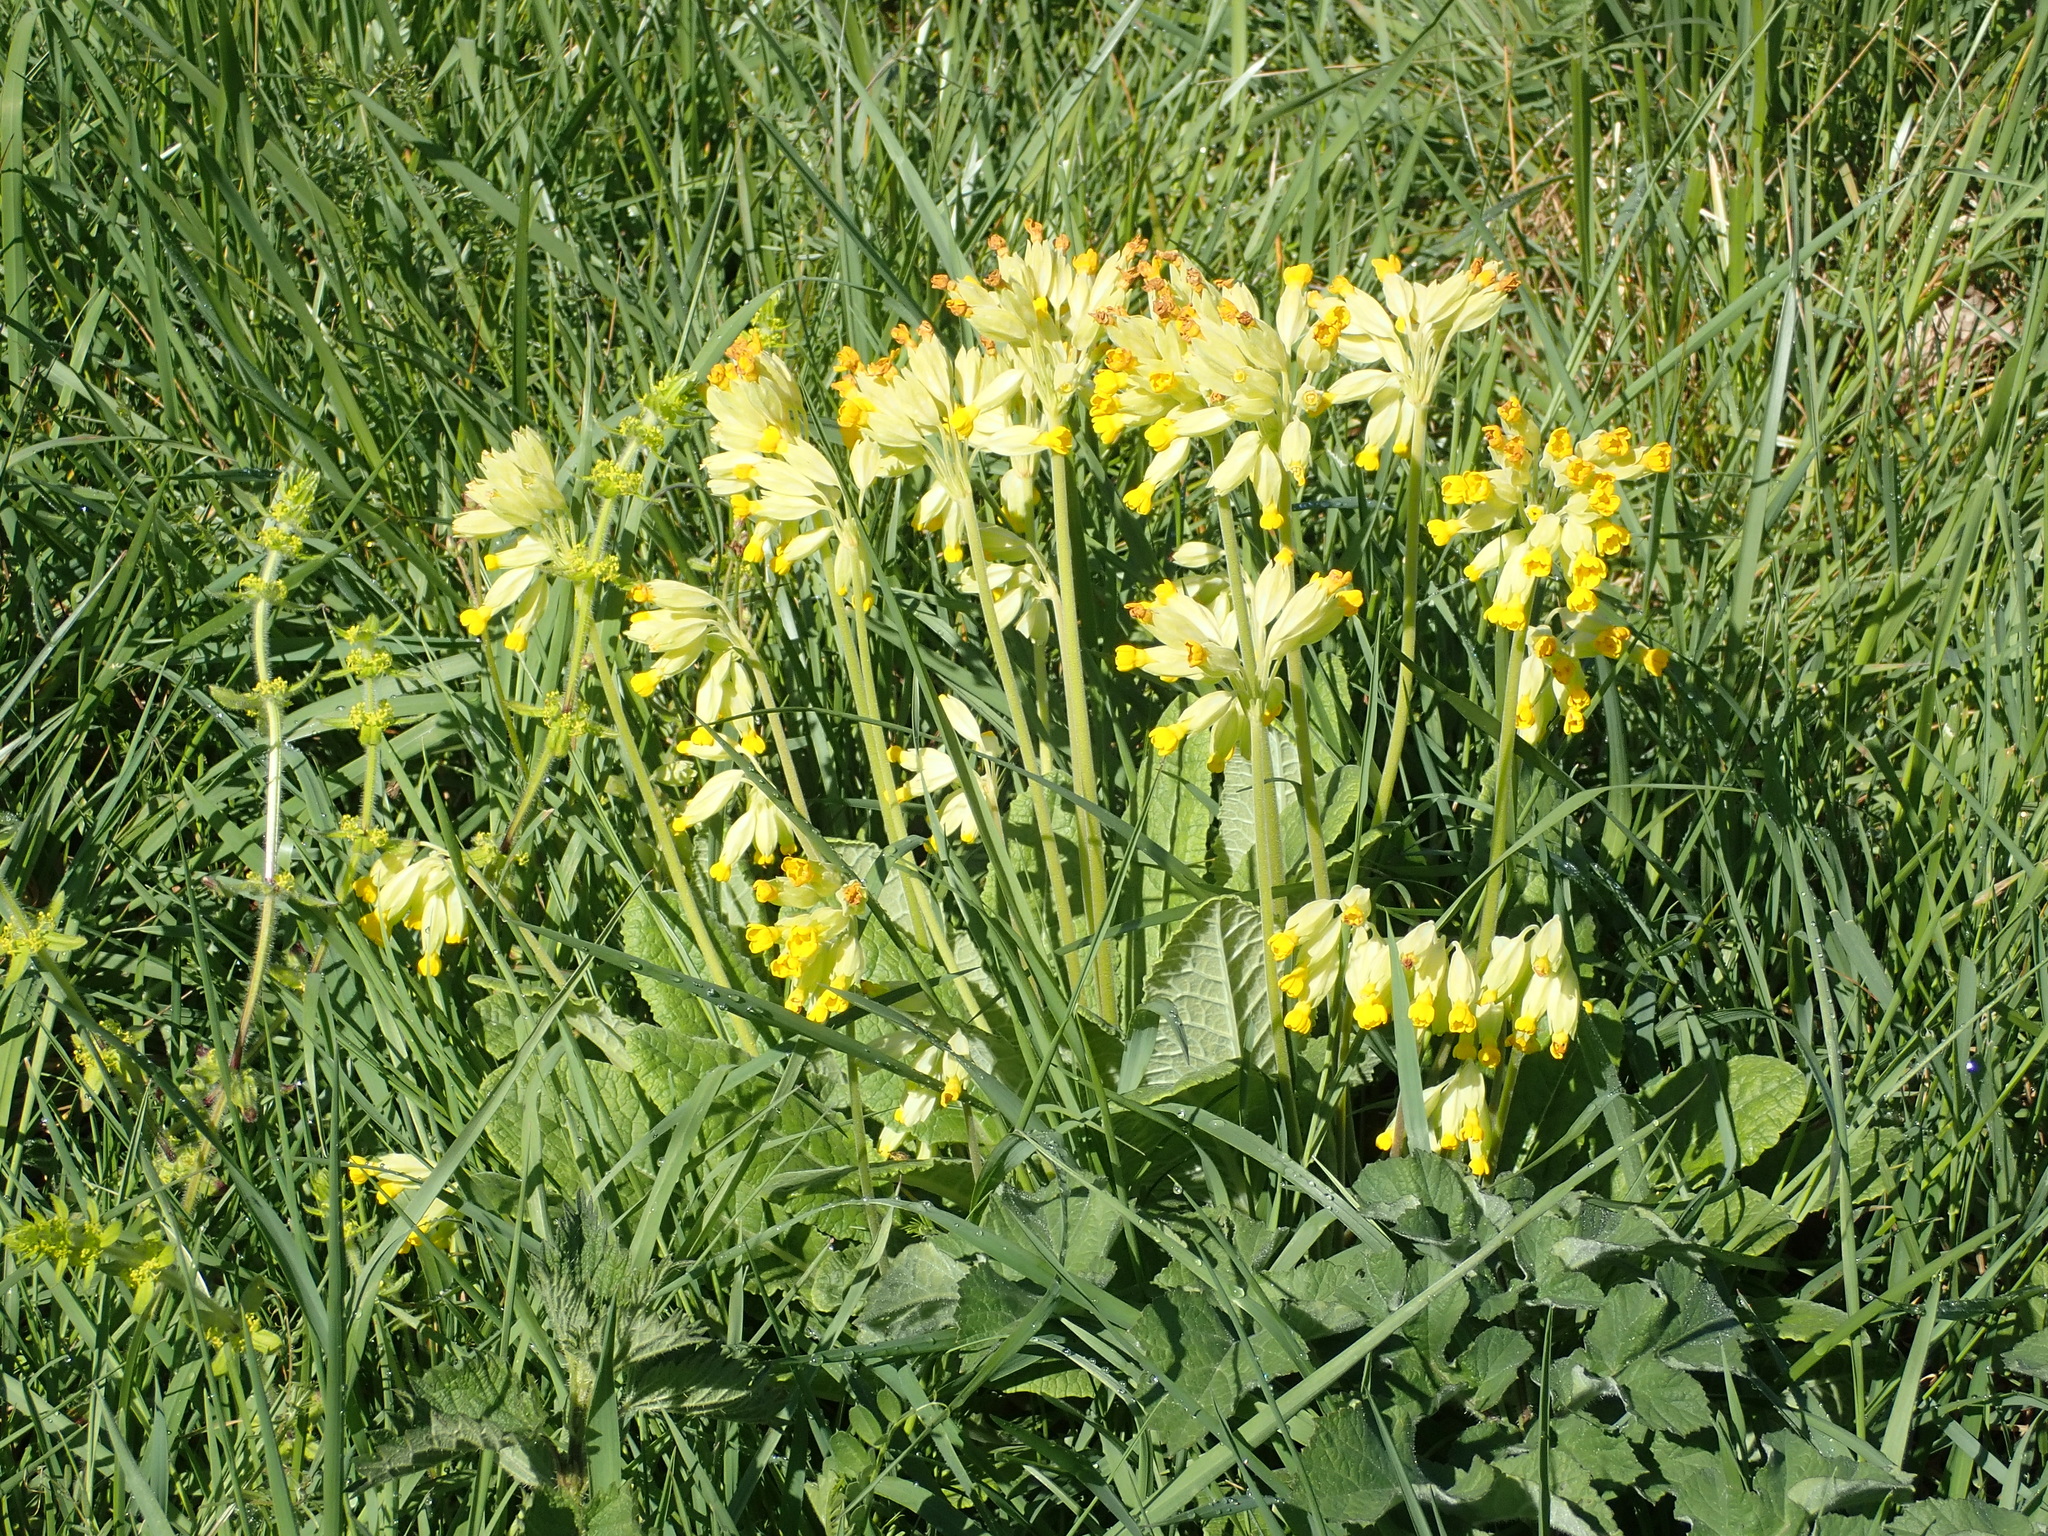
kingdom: Plantae
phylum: Tracheophyta
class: Magnoliopsida
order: Ericales
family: Primulaceae
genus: Primula
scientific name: Primula veris
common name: Cowslip
